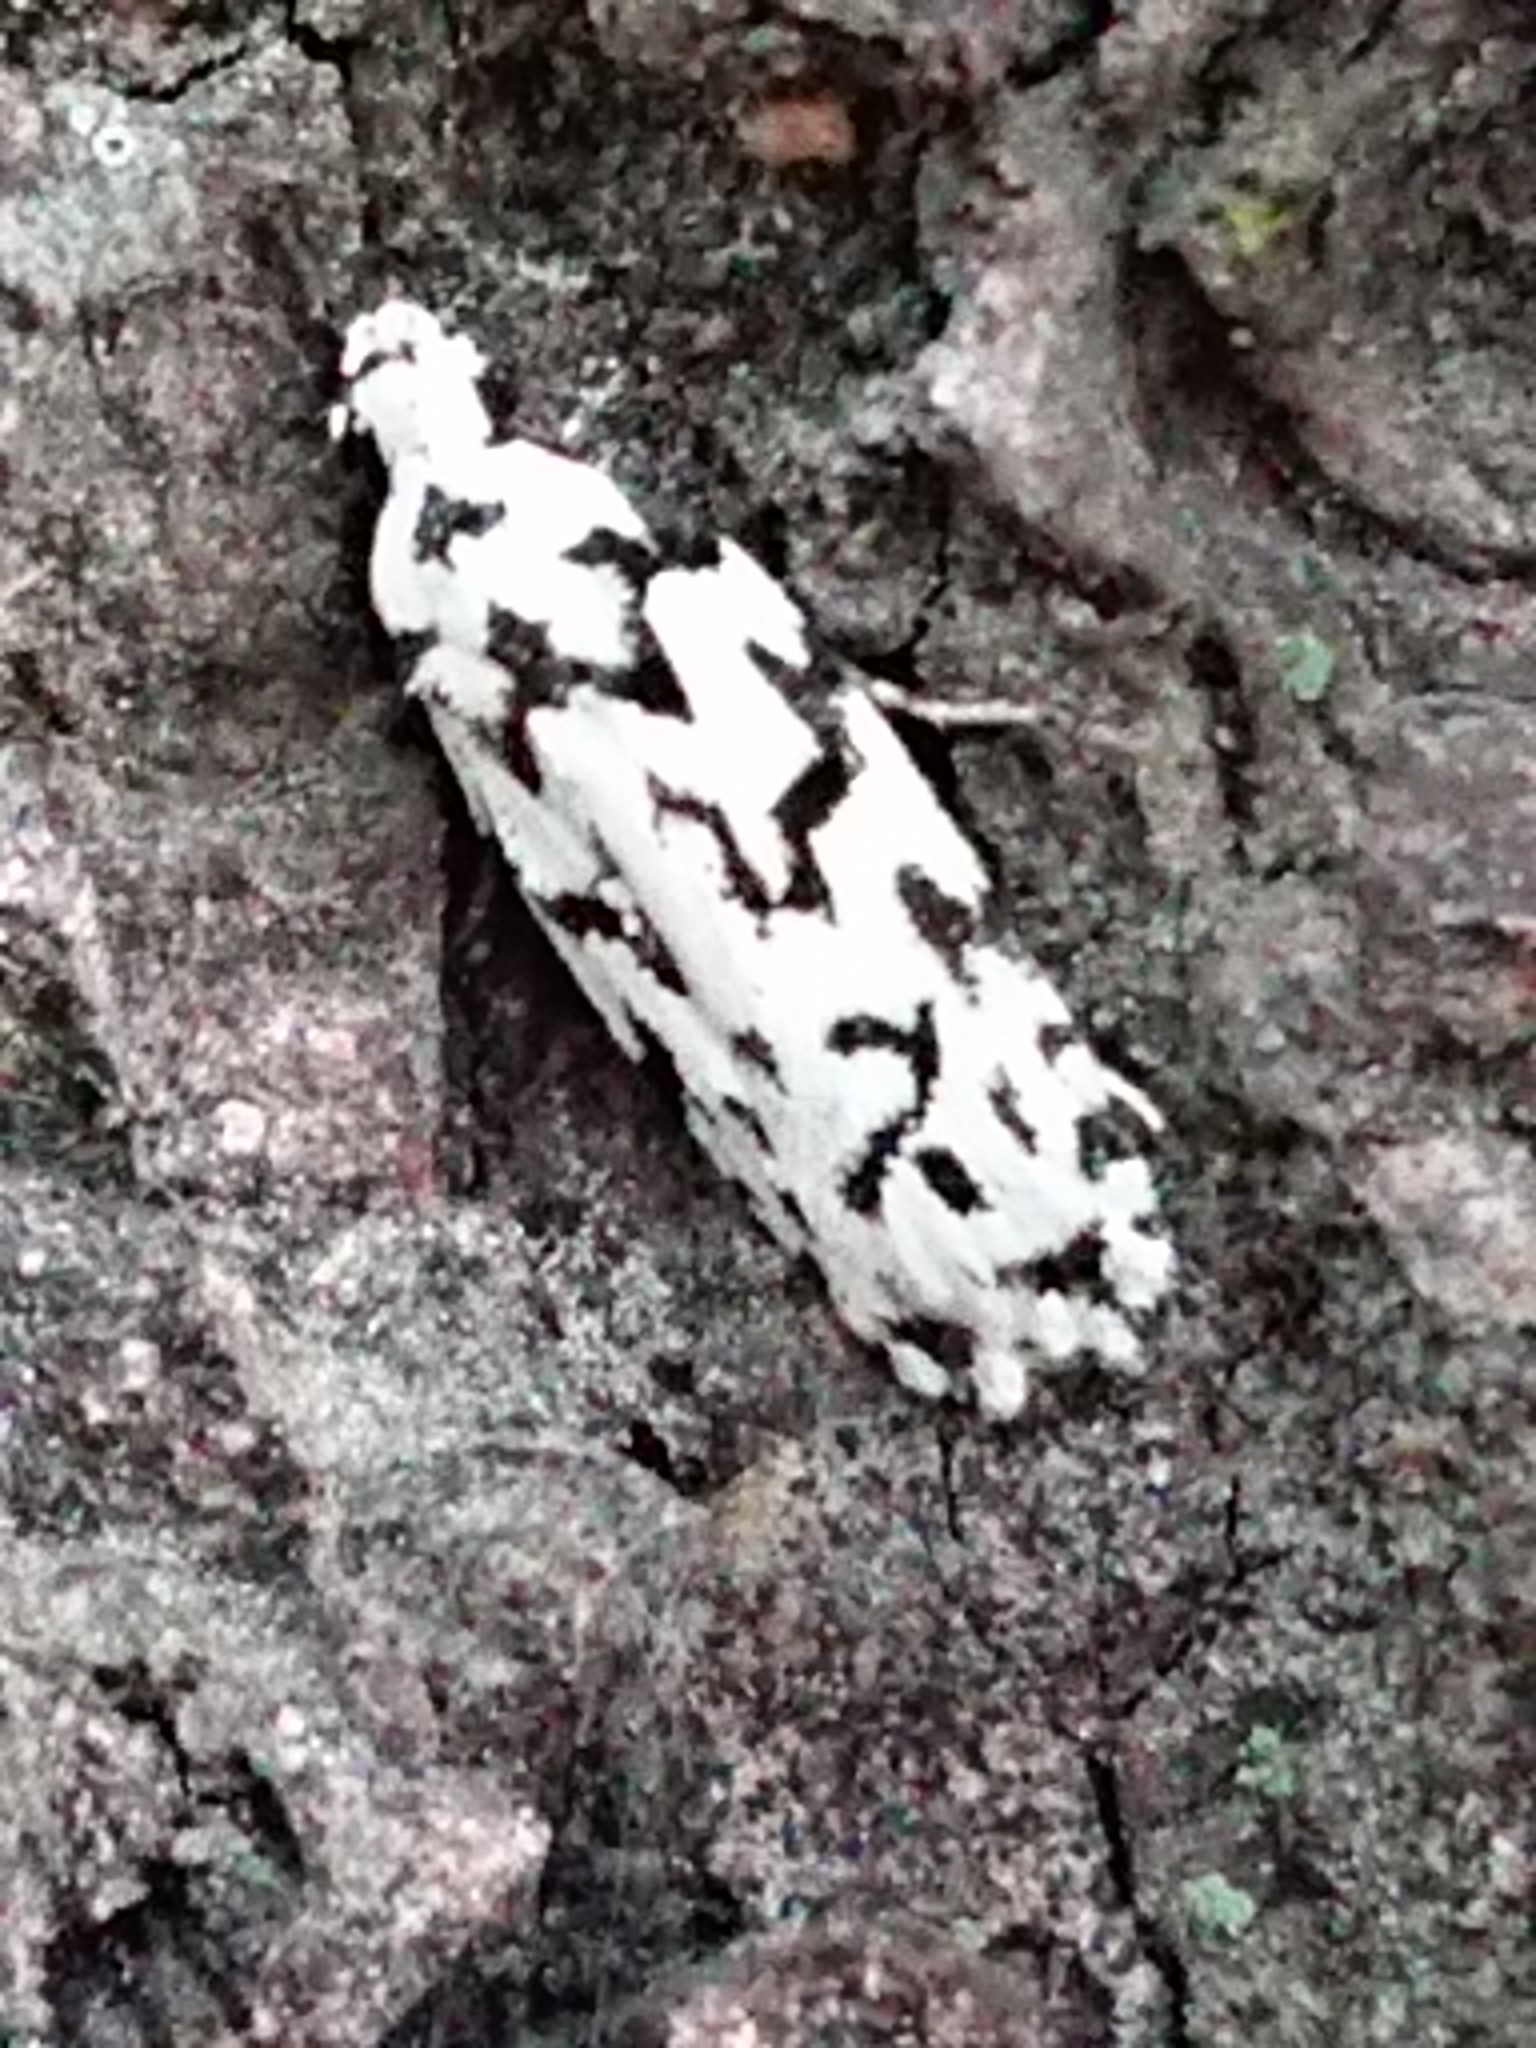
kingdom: Animalia
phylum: Arthropoda
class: Insecta
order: Lepidoptera
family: Oecophoridae
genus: Izatha
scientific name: Izatha katadiktya
